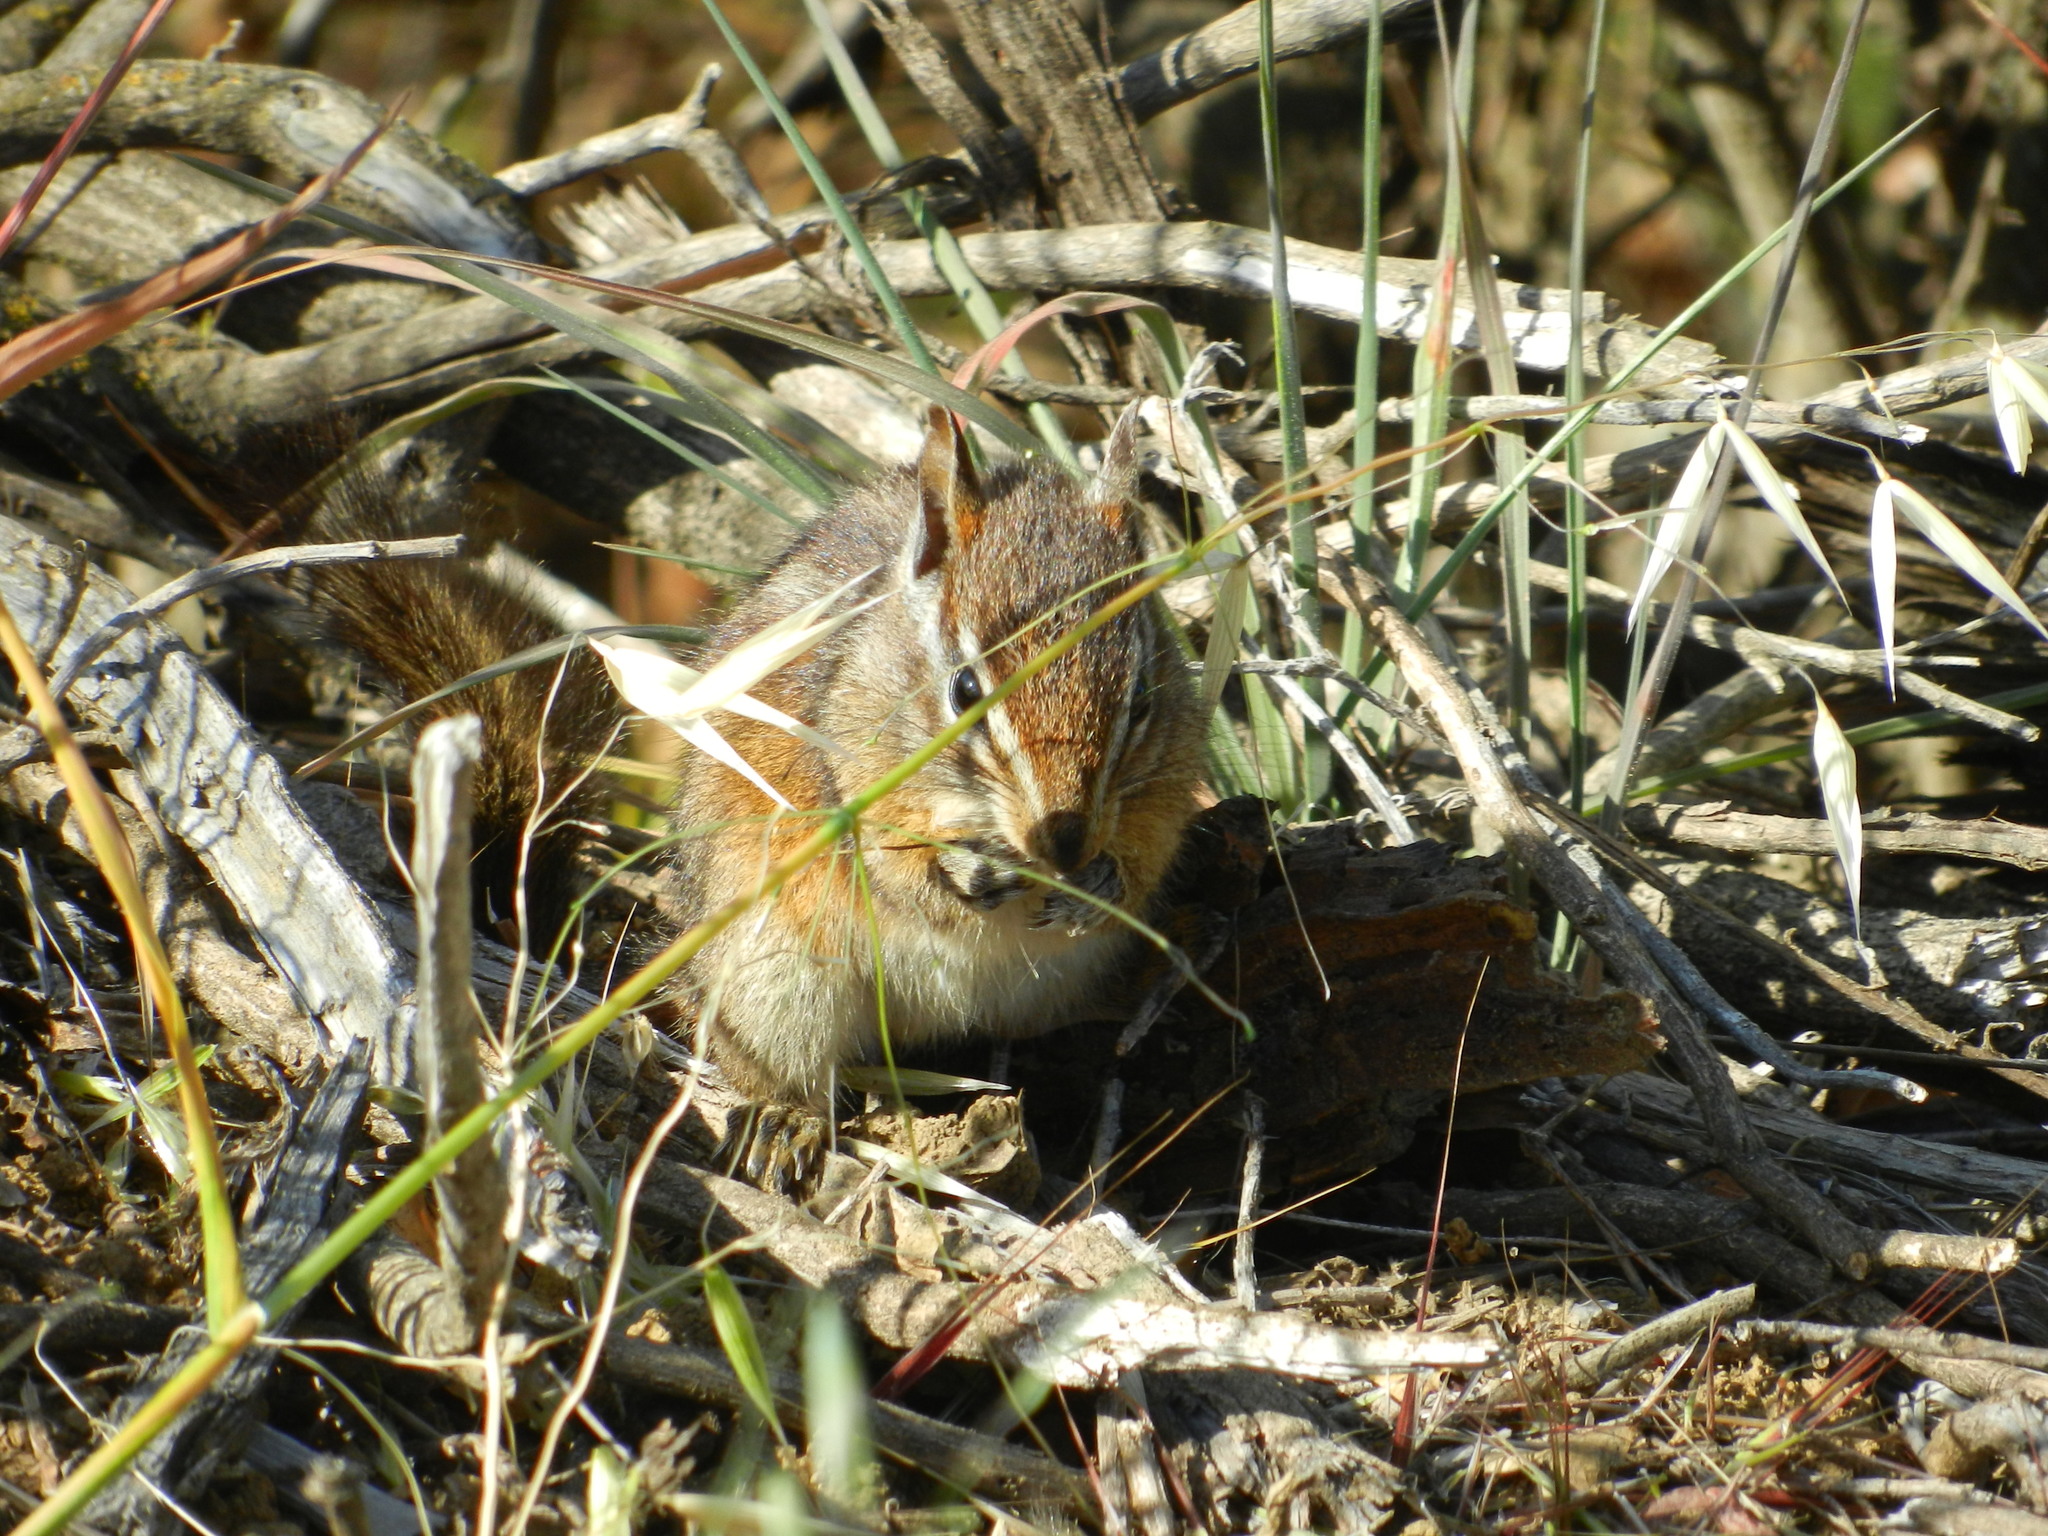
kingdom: Animalia
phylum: Chordata
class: Mammalia
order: Rodentia
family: Sciuridae
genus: Tamias
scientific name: Tamias merriami
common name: Merriam's chipmunk
